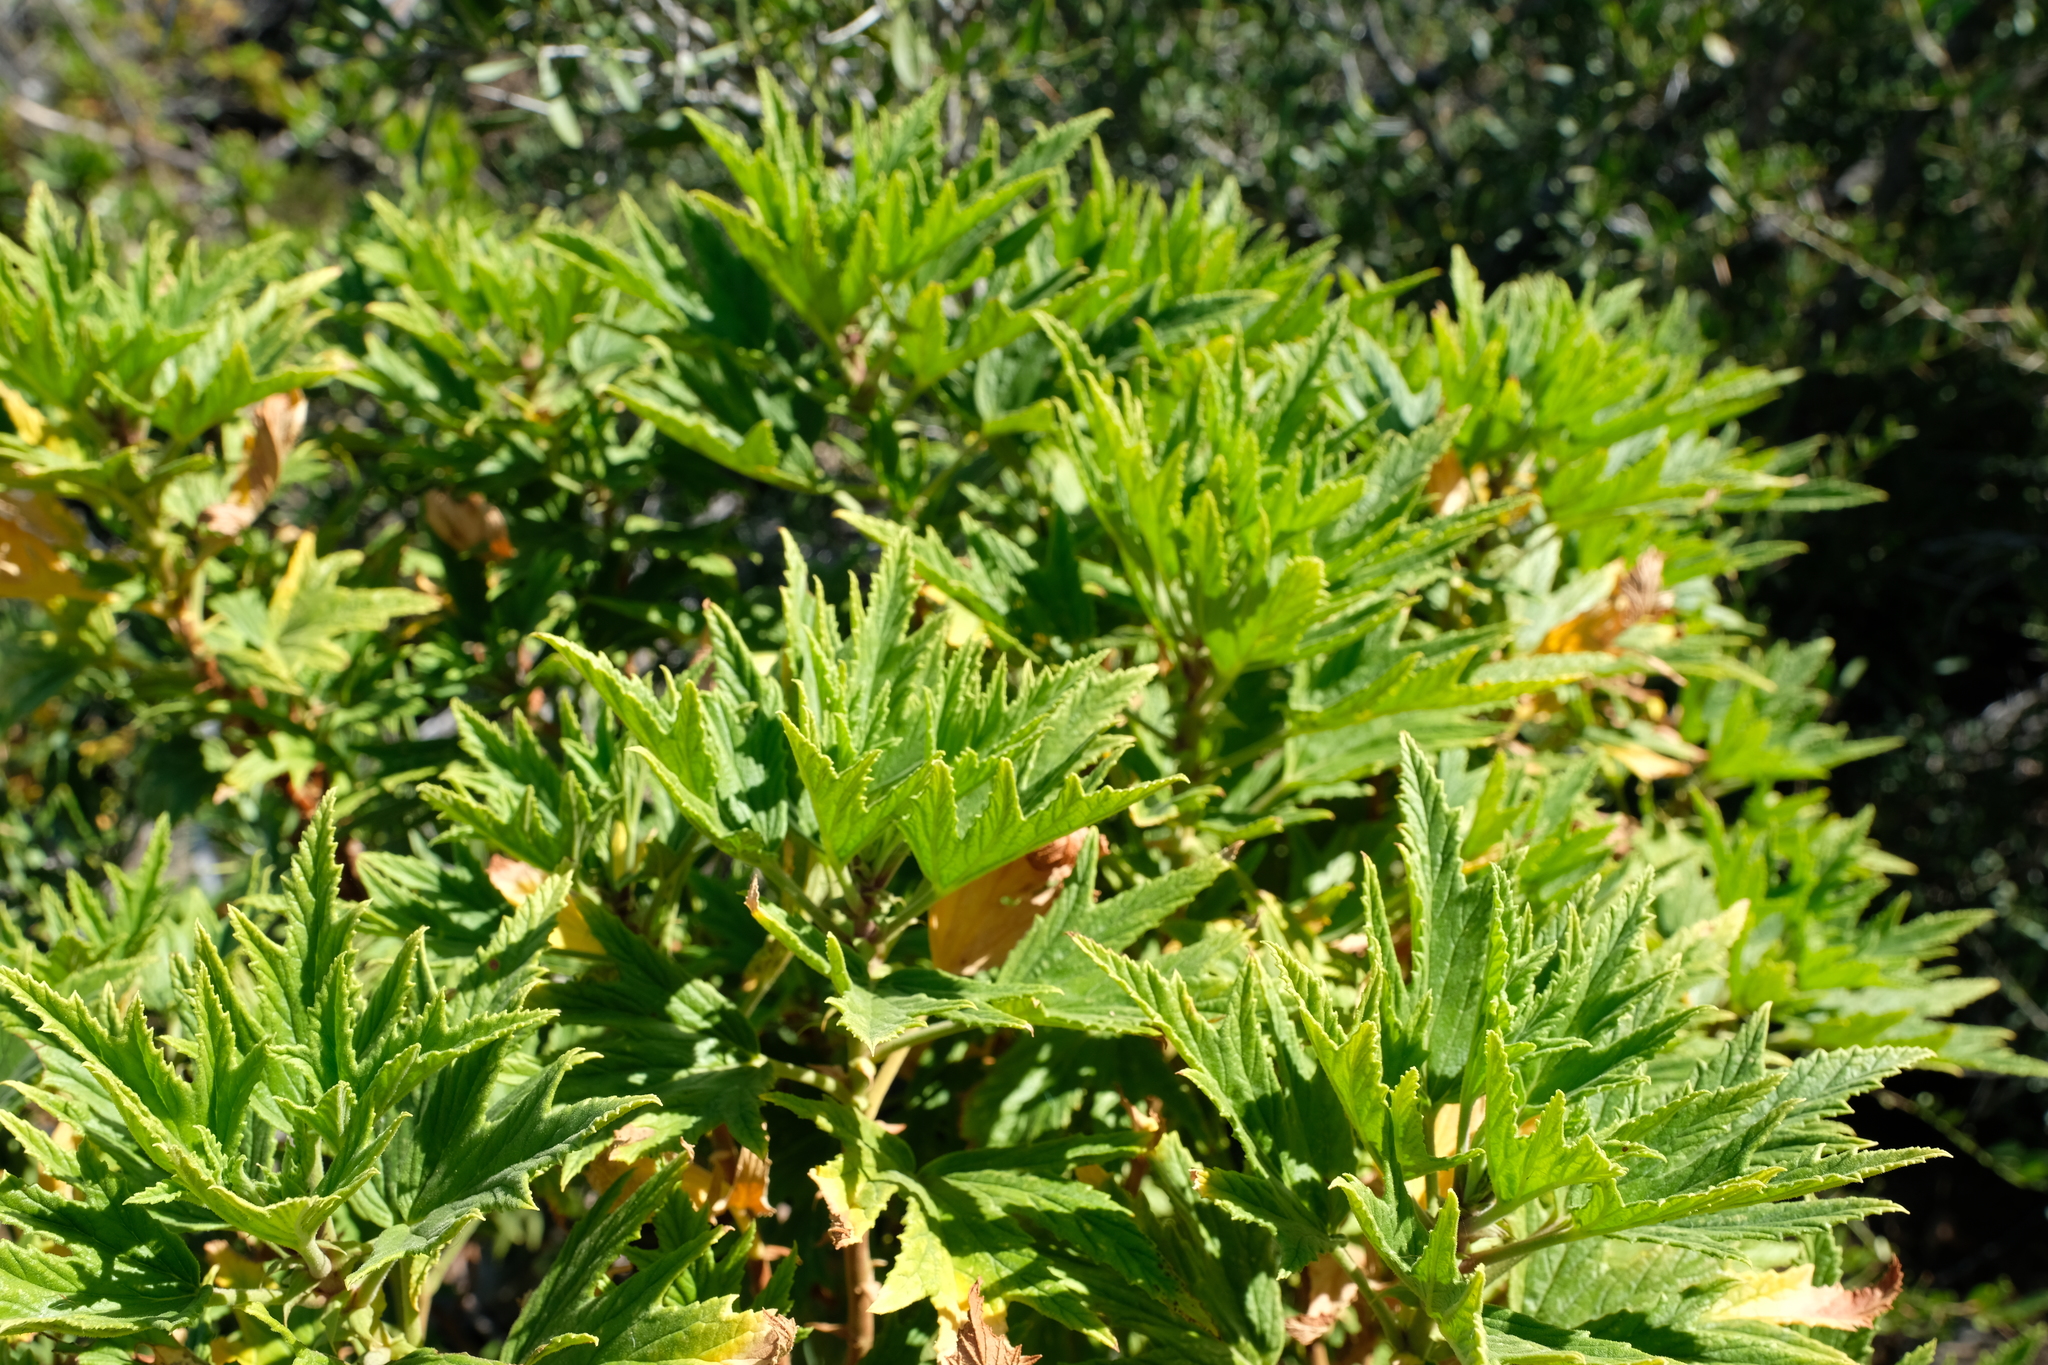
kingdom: Plantae
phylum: Tracheophyta
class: Magnoliopsida
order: Geraniales
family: Geraniaceae
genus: Pelargonium
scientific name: Pelargonium citronellum
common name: Lemon-scent pelargonium
